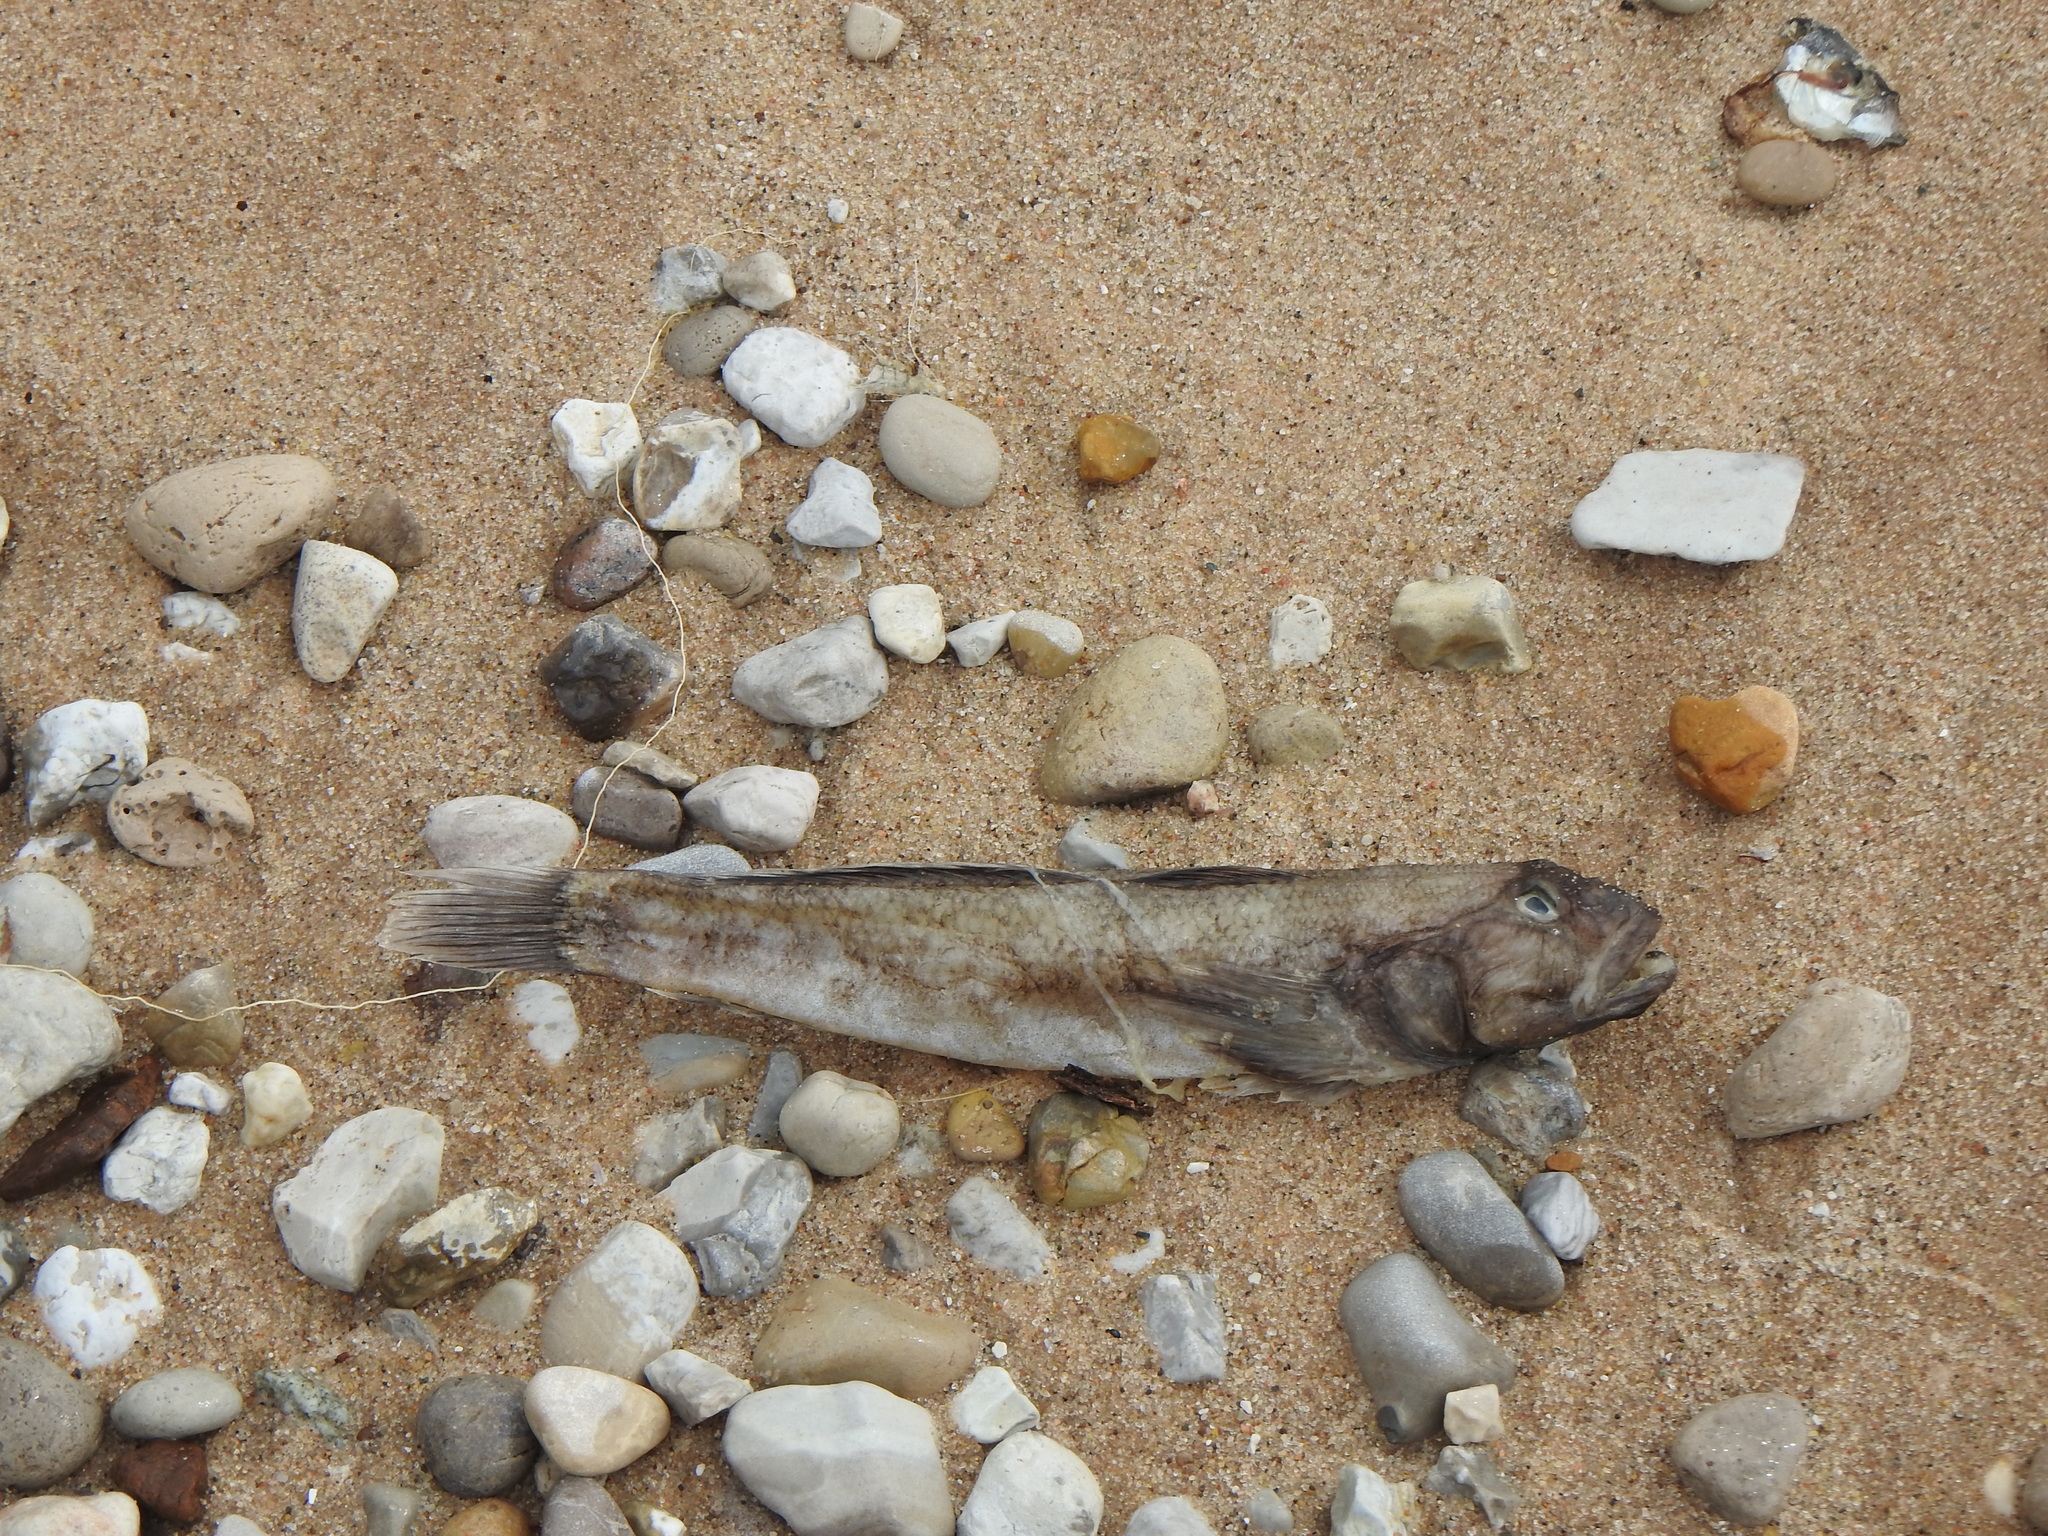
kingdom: Animalia
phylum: Chordata
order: Perciformes
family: Gobiidae
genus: Neogobius
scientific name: Neogobius melanostomus
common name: Round goby
